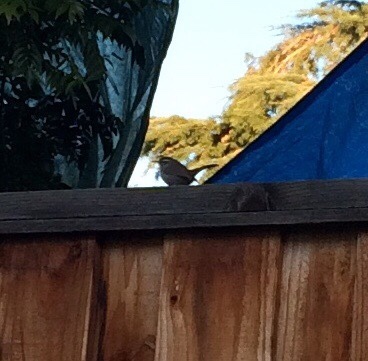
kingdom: Animalia
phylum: Chordata
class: Aves
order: Passeriformes
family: Troglodytidae
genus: Thryomanes
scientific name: Thryomanes bewickii
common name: Bewick's wren
